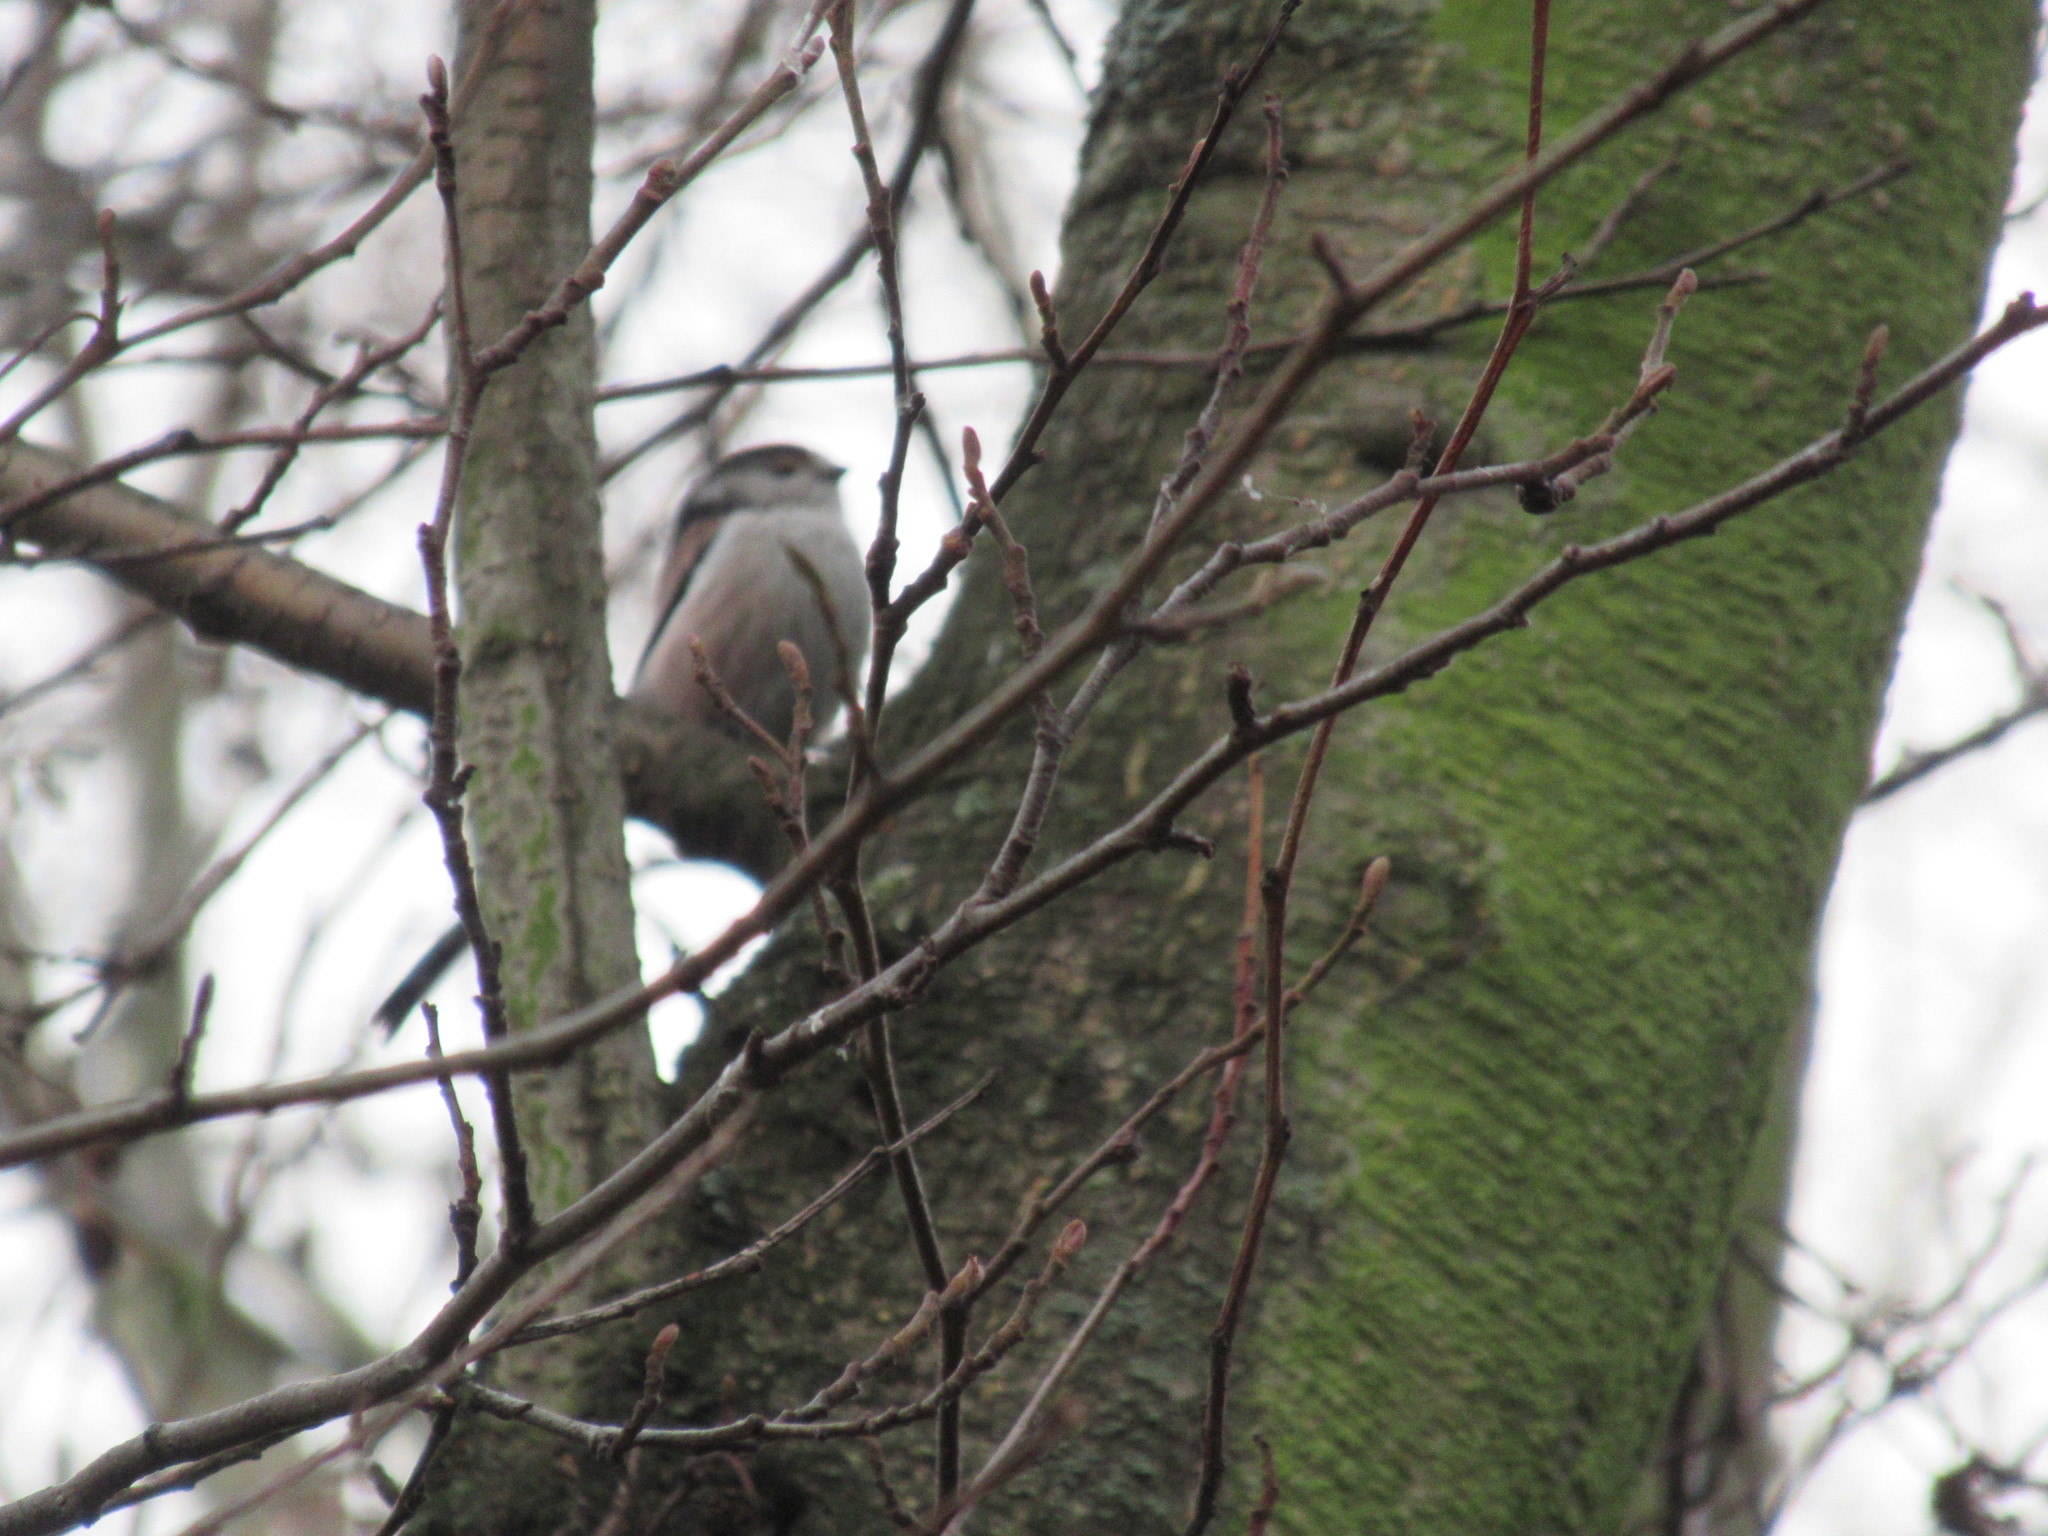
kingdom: Animalia
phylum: Chordata
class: Aves
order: Passeriformes
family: Aegithalidae
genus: Aegithalos
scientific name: Aegithalos caudatus
